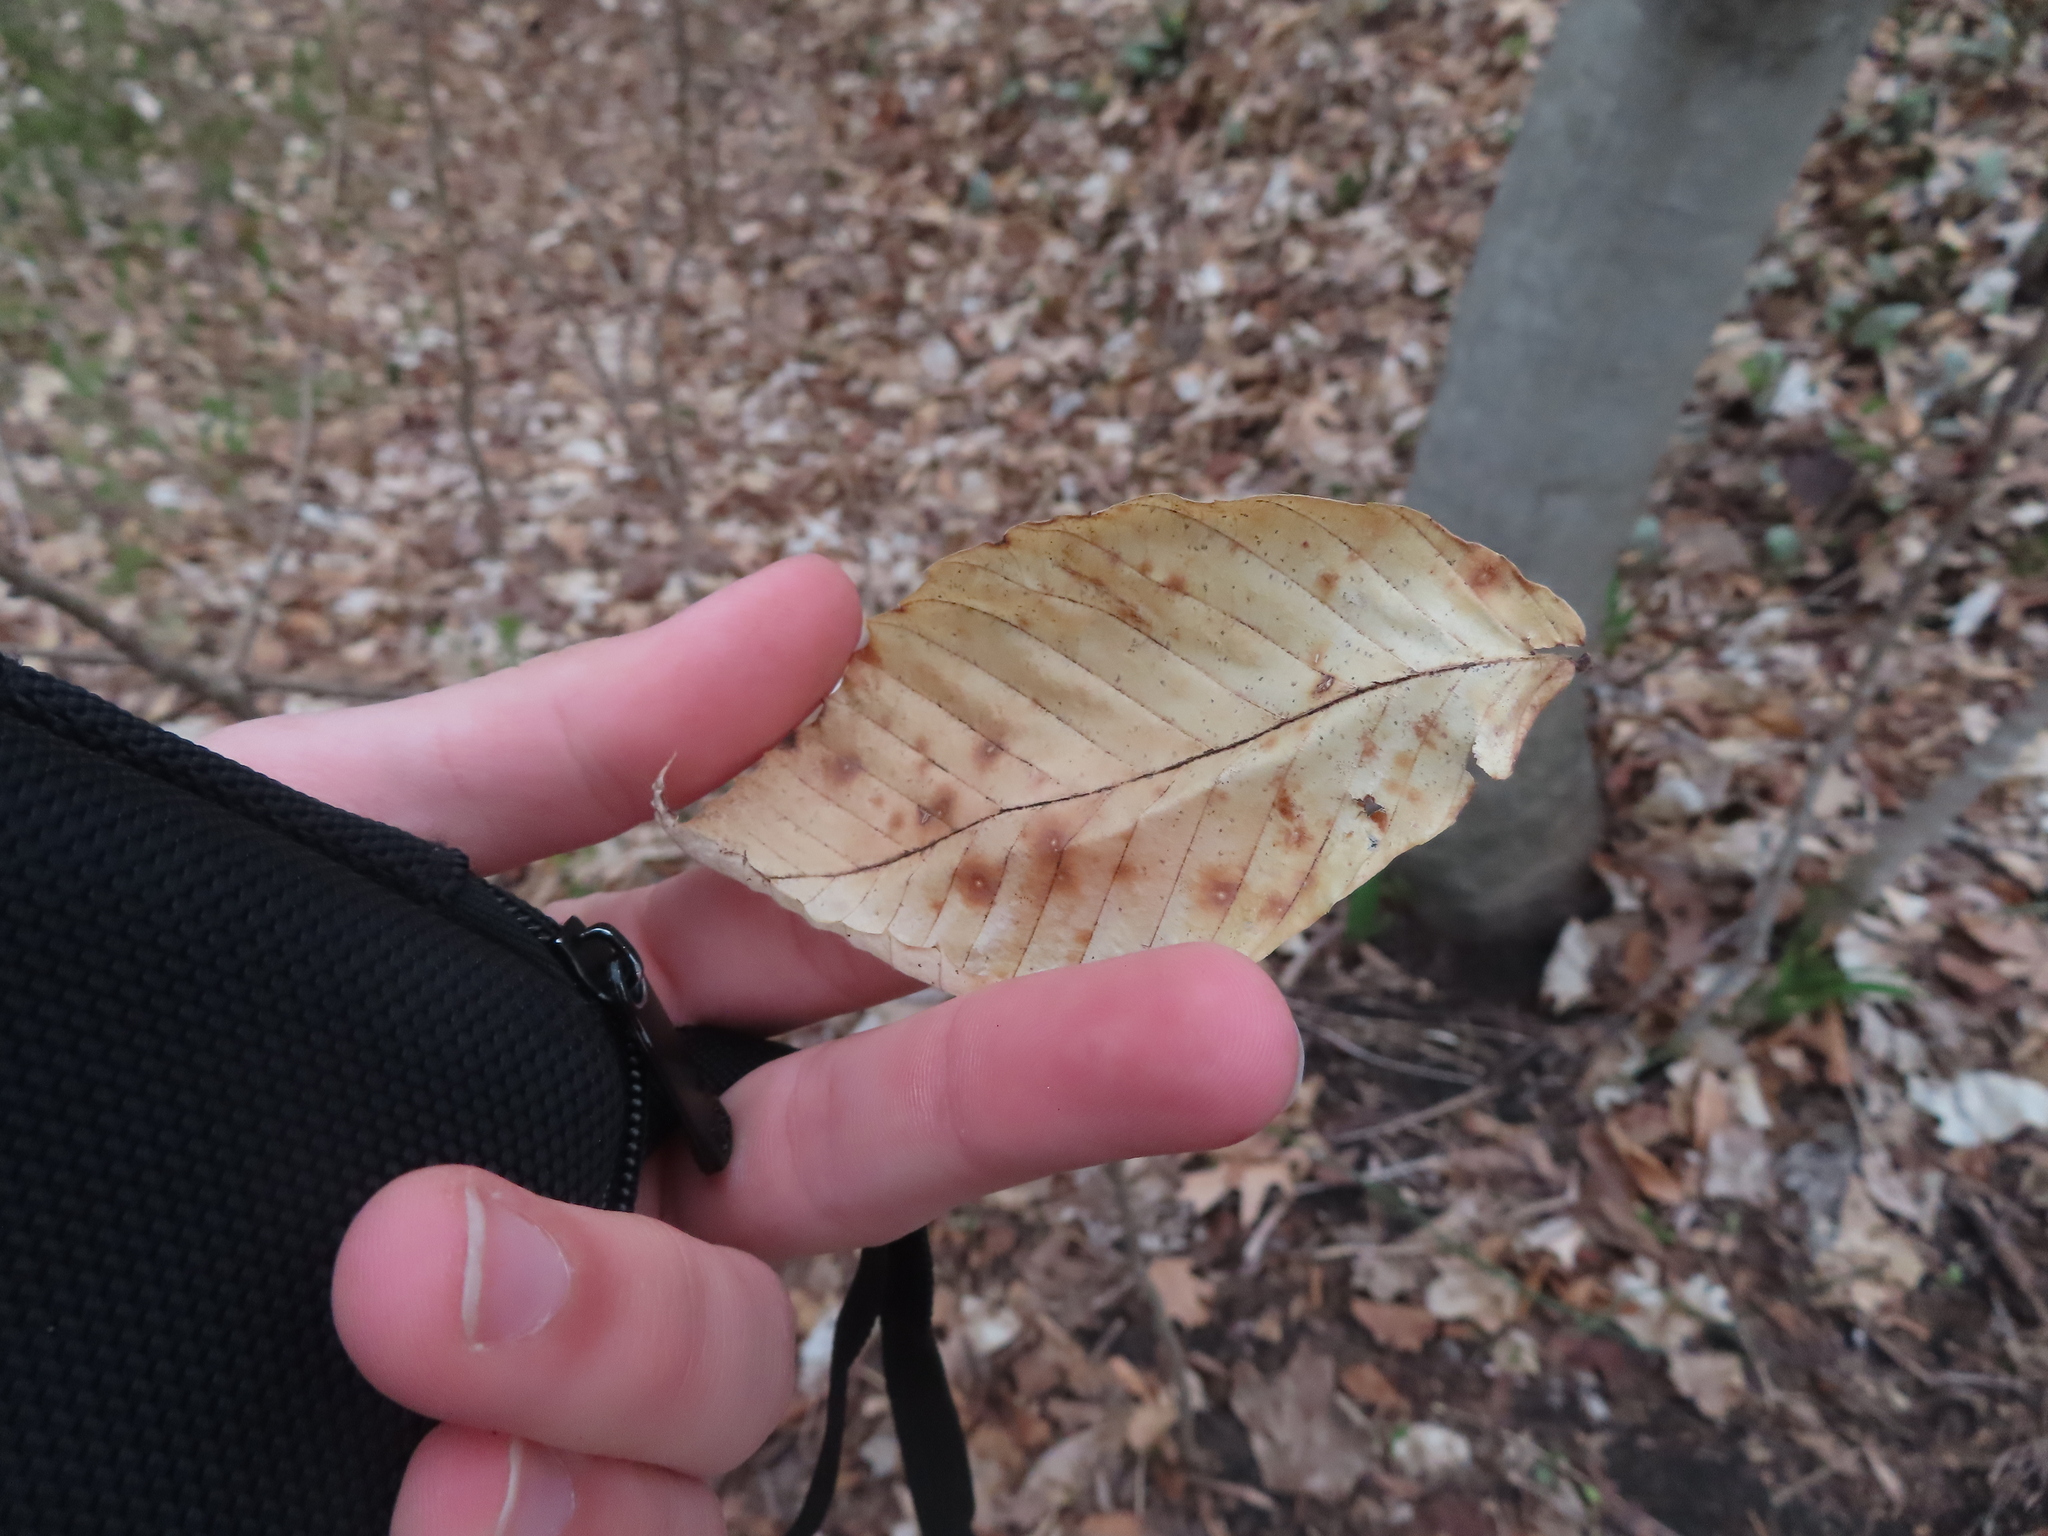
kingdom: Plantae
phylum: Tracheophyta
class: Magnoliopsida
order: Fagales
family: Fagaceae
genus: Fagus
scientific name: Fagus grandifolia
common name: American beech
